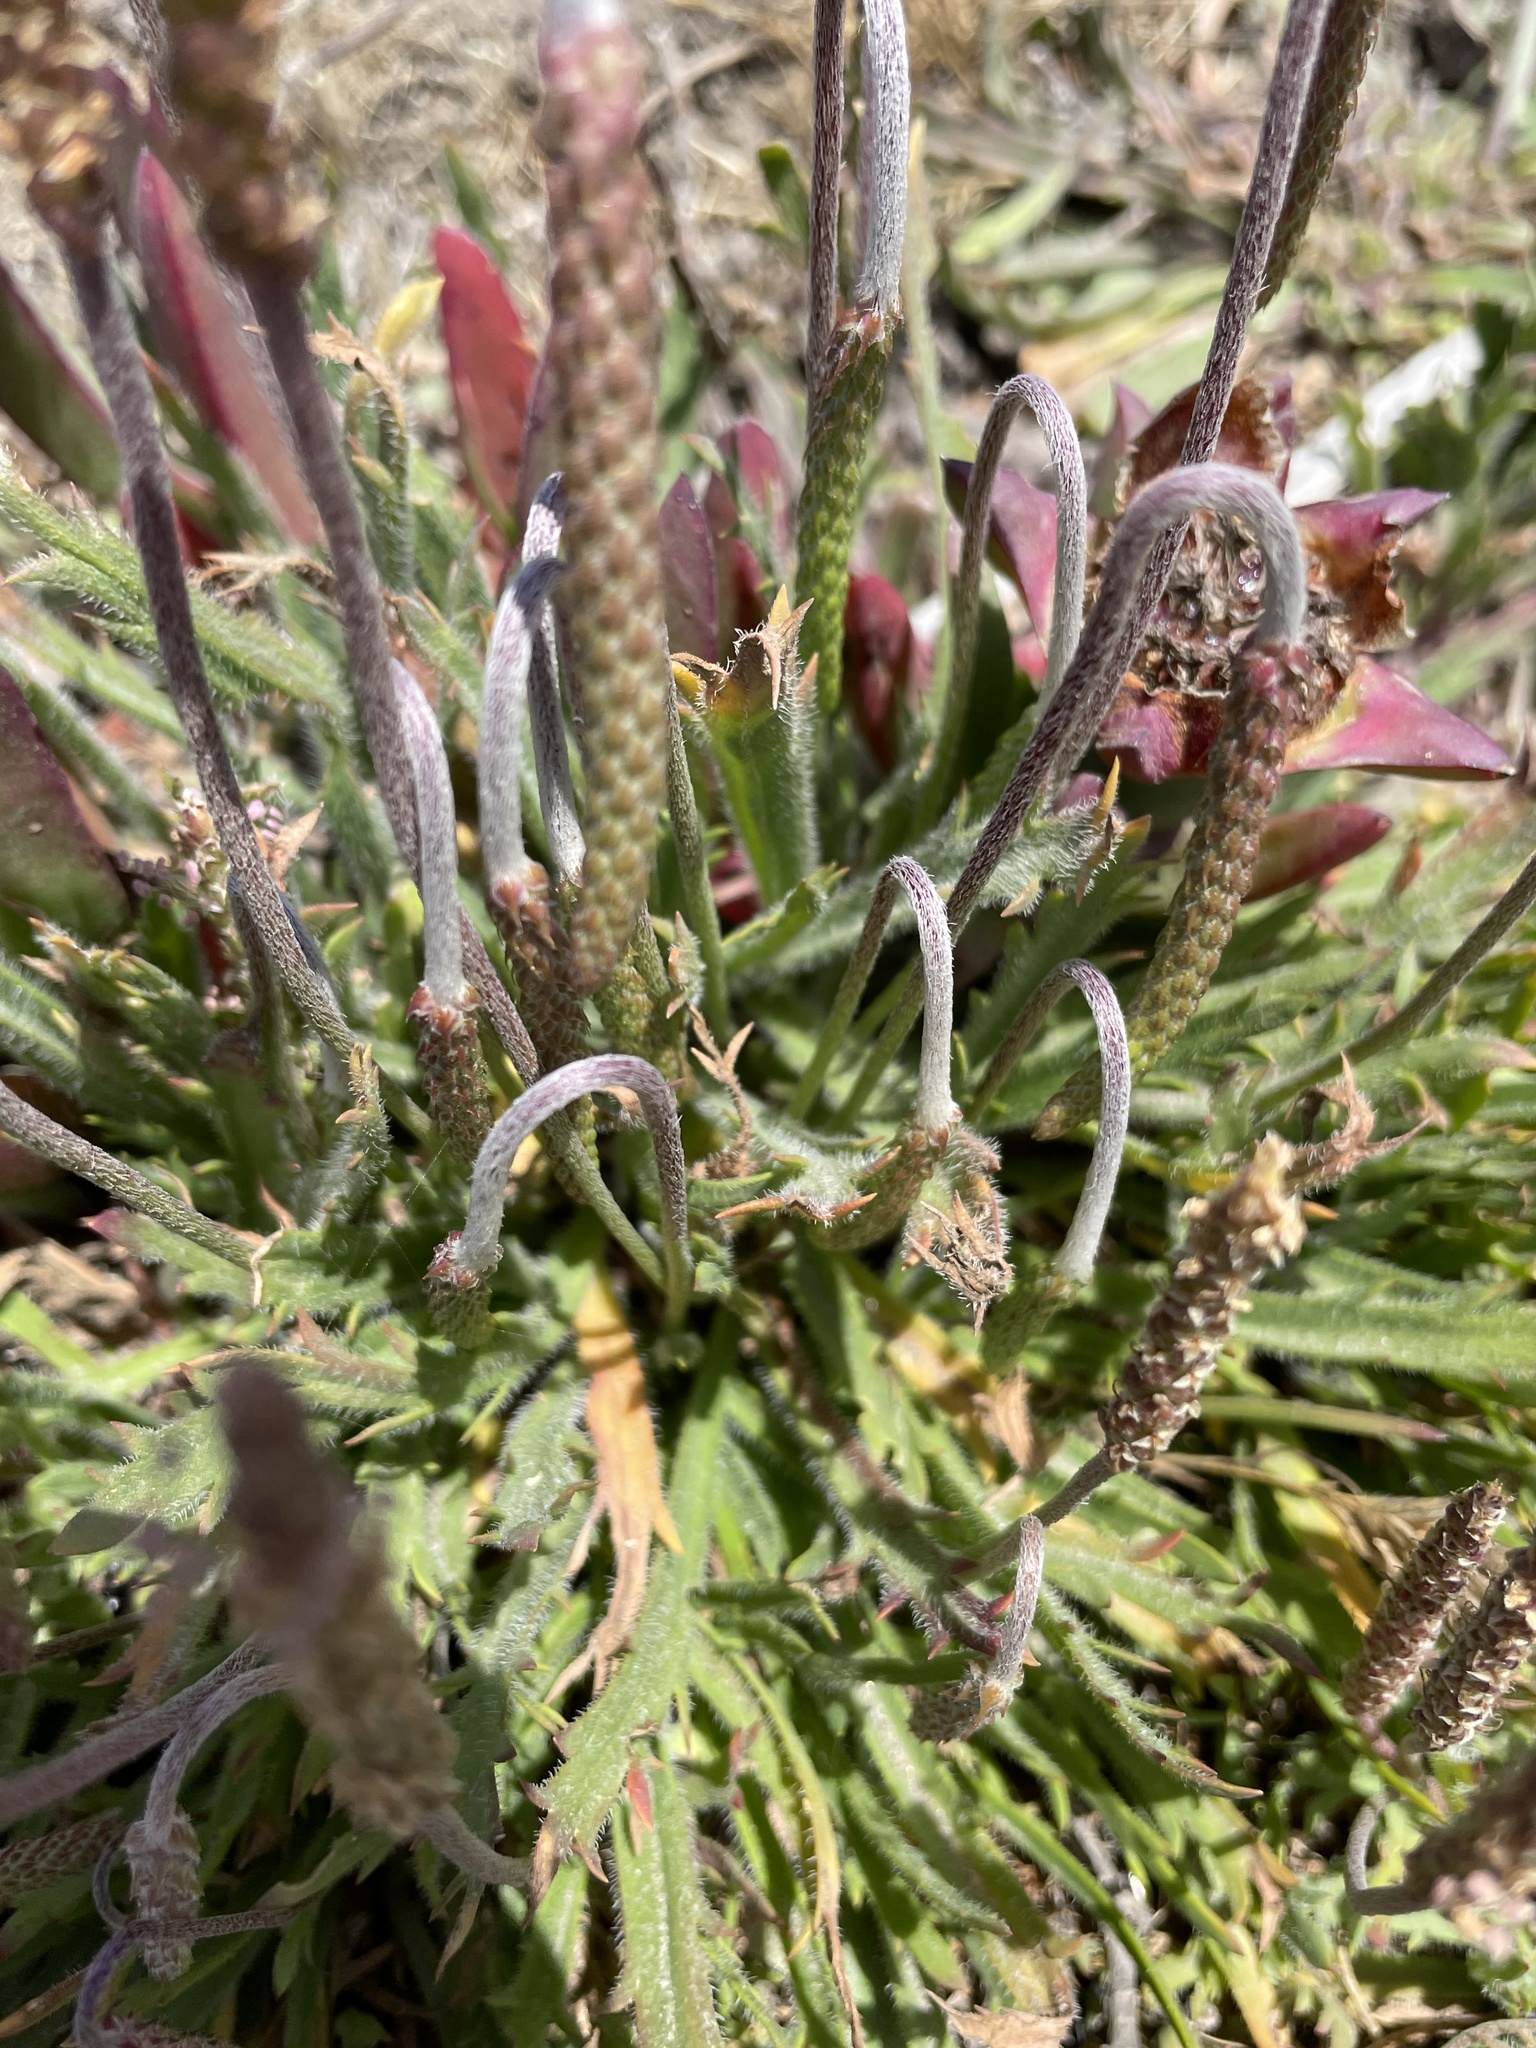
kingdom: Plantae
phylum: Tracheophyta
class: Magnoliopsida
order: Lamiales
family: Plantaginaceae
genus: Plantago
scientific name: Plantago coronopus
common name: Buck's-horn plantain
